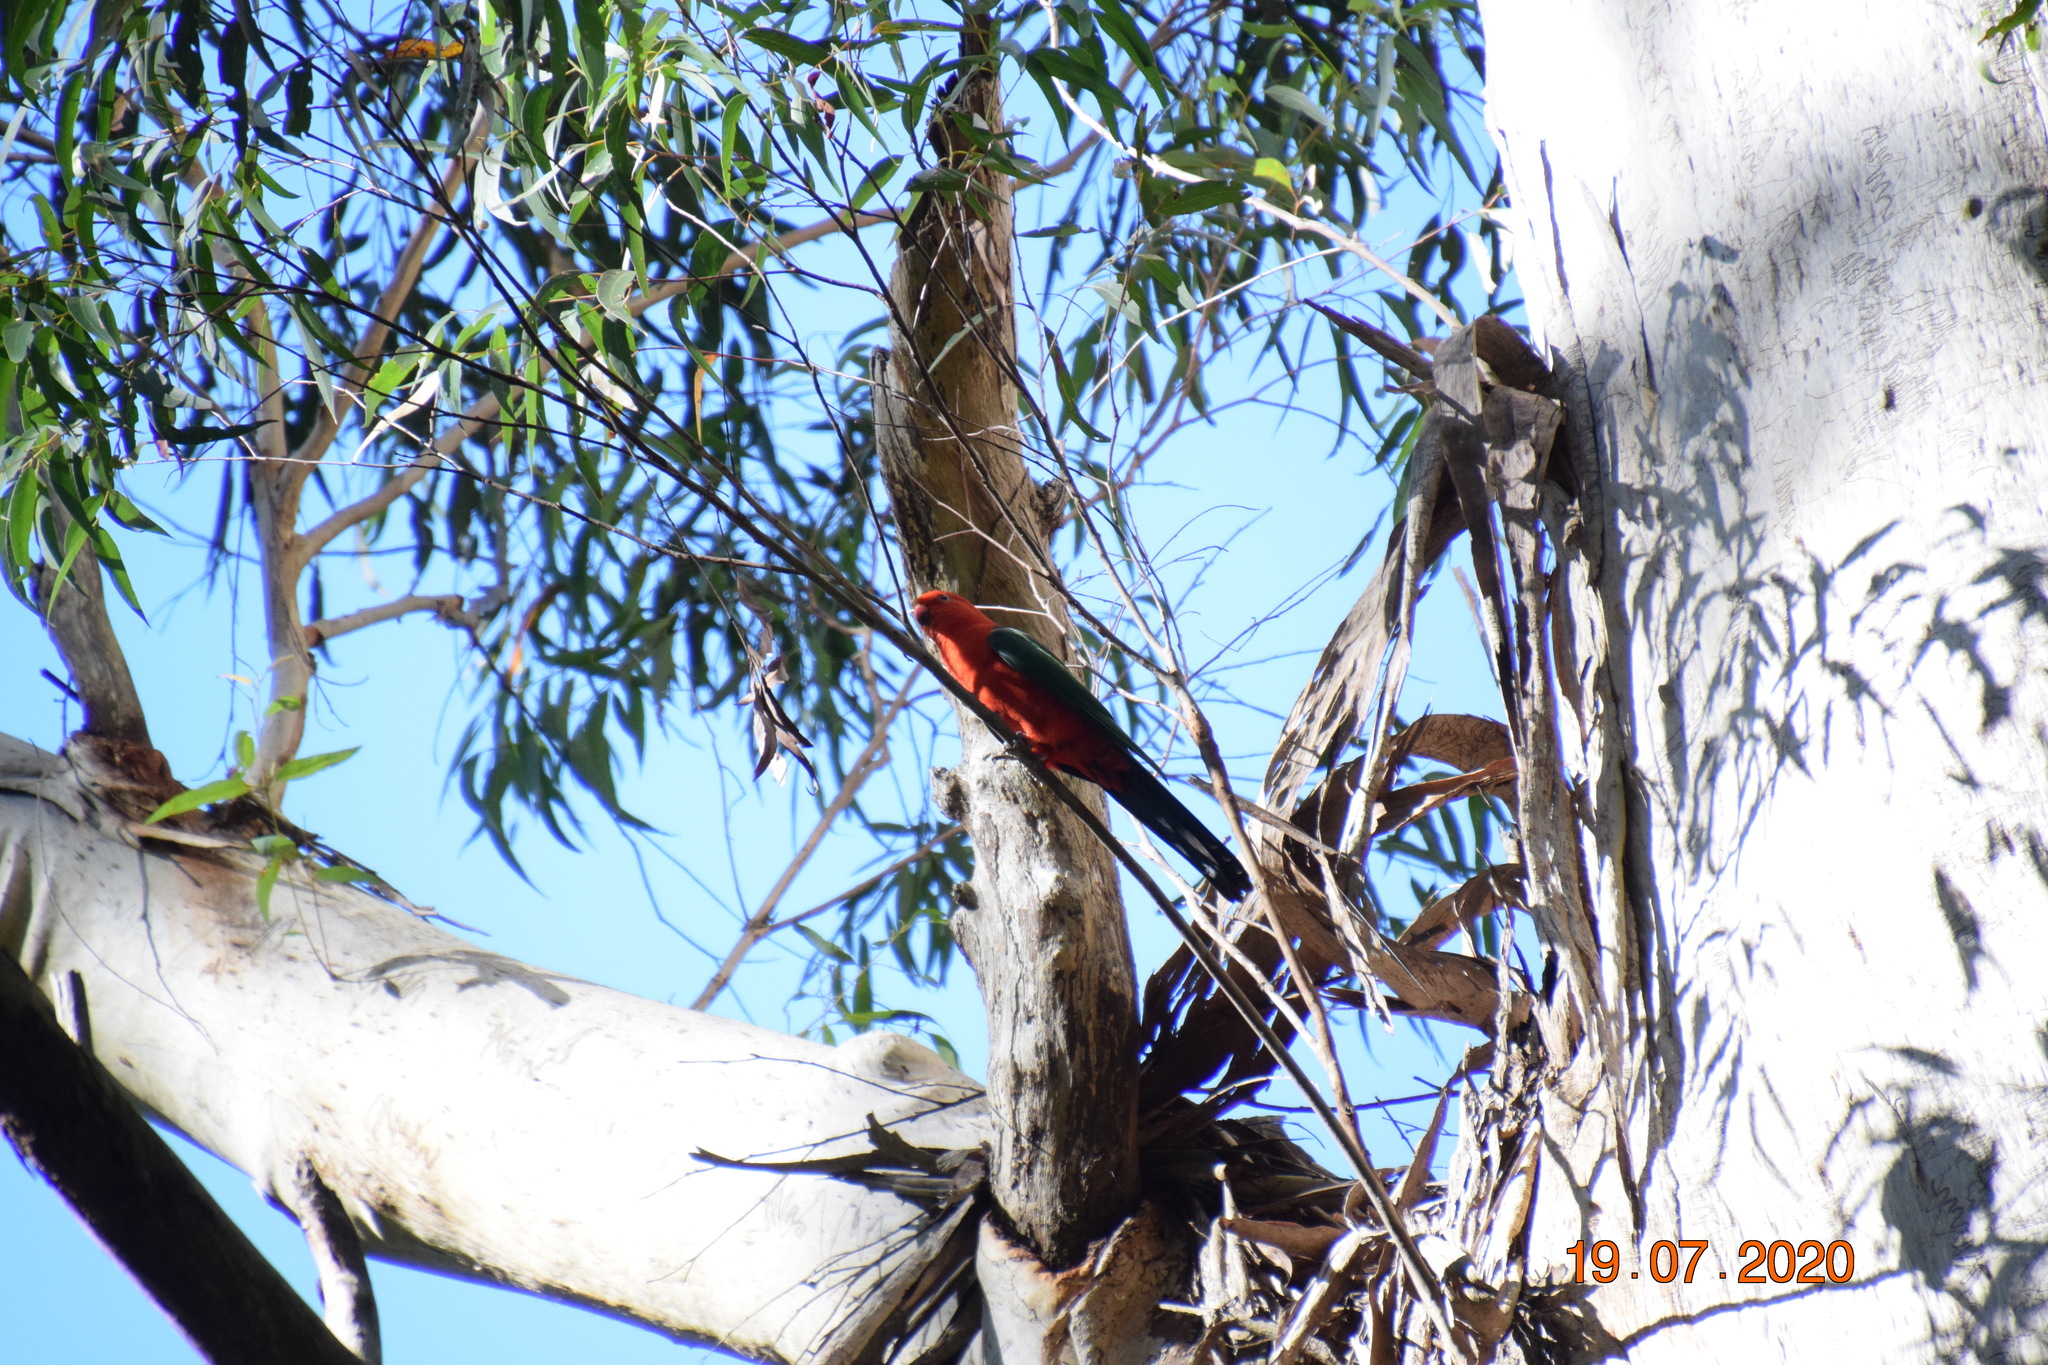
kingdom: Animalia
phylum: Chordata
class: Aves
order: Psittaciformes
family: Psittacidae
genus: Alisterus
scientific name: Alisterus scapularis
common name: Australian king parrot
